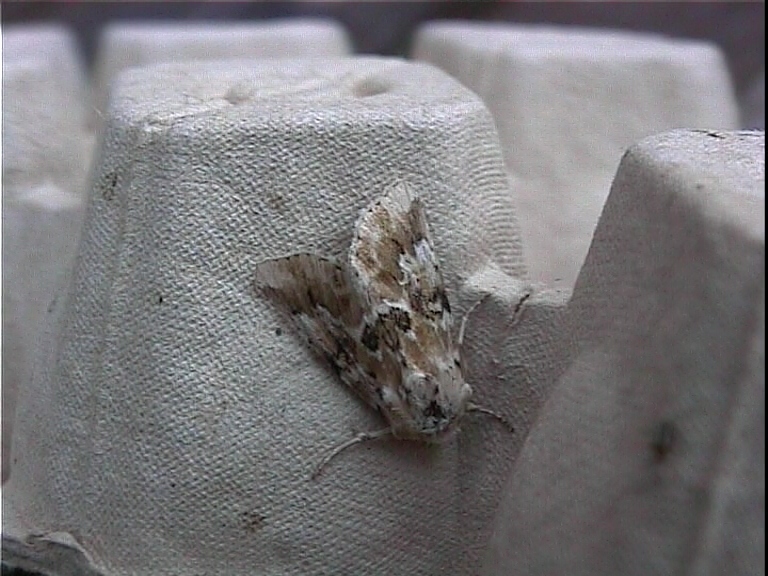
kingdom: Animalia
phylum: Arthropoda
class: Insecta
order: Lepidoptera
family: Noctuidae
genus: Eremobia
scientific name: Eremobia ochroleuca
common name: Dusky sallow
